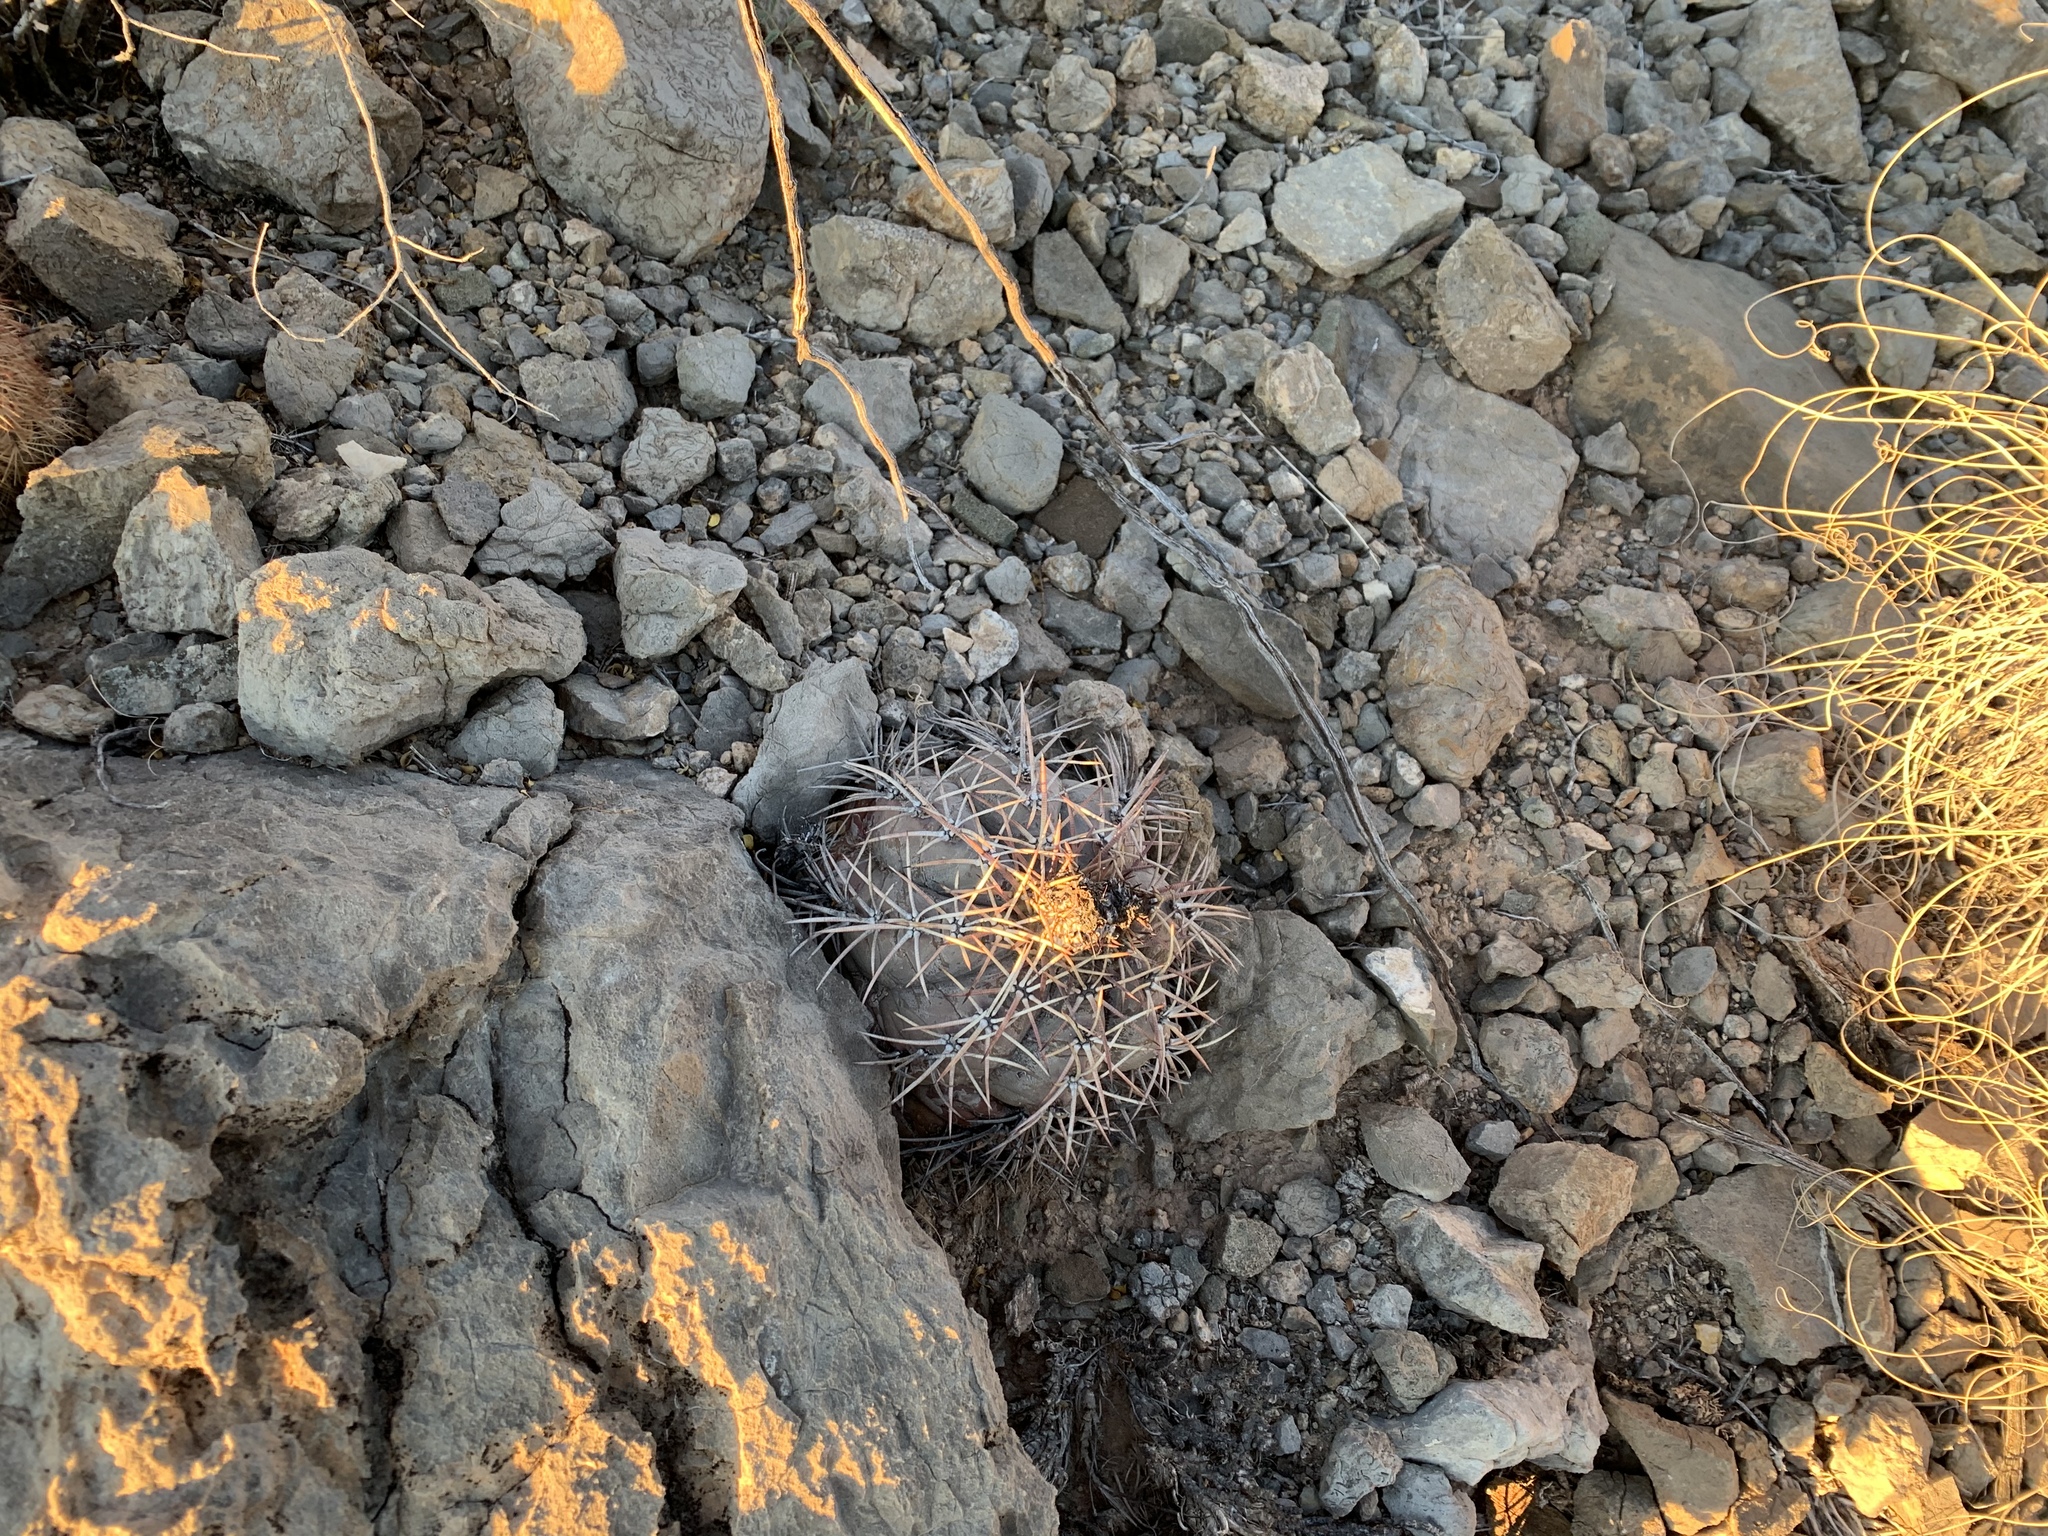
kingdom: Plantae
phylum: Tracheophyta
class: Magnoliopsida
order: Caryophyllales
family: Cactaceae
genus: Echinocactus
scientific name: Echinocactus horizonthalonius
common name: Devilshead
